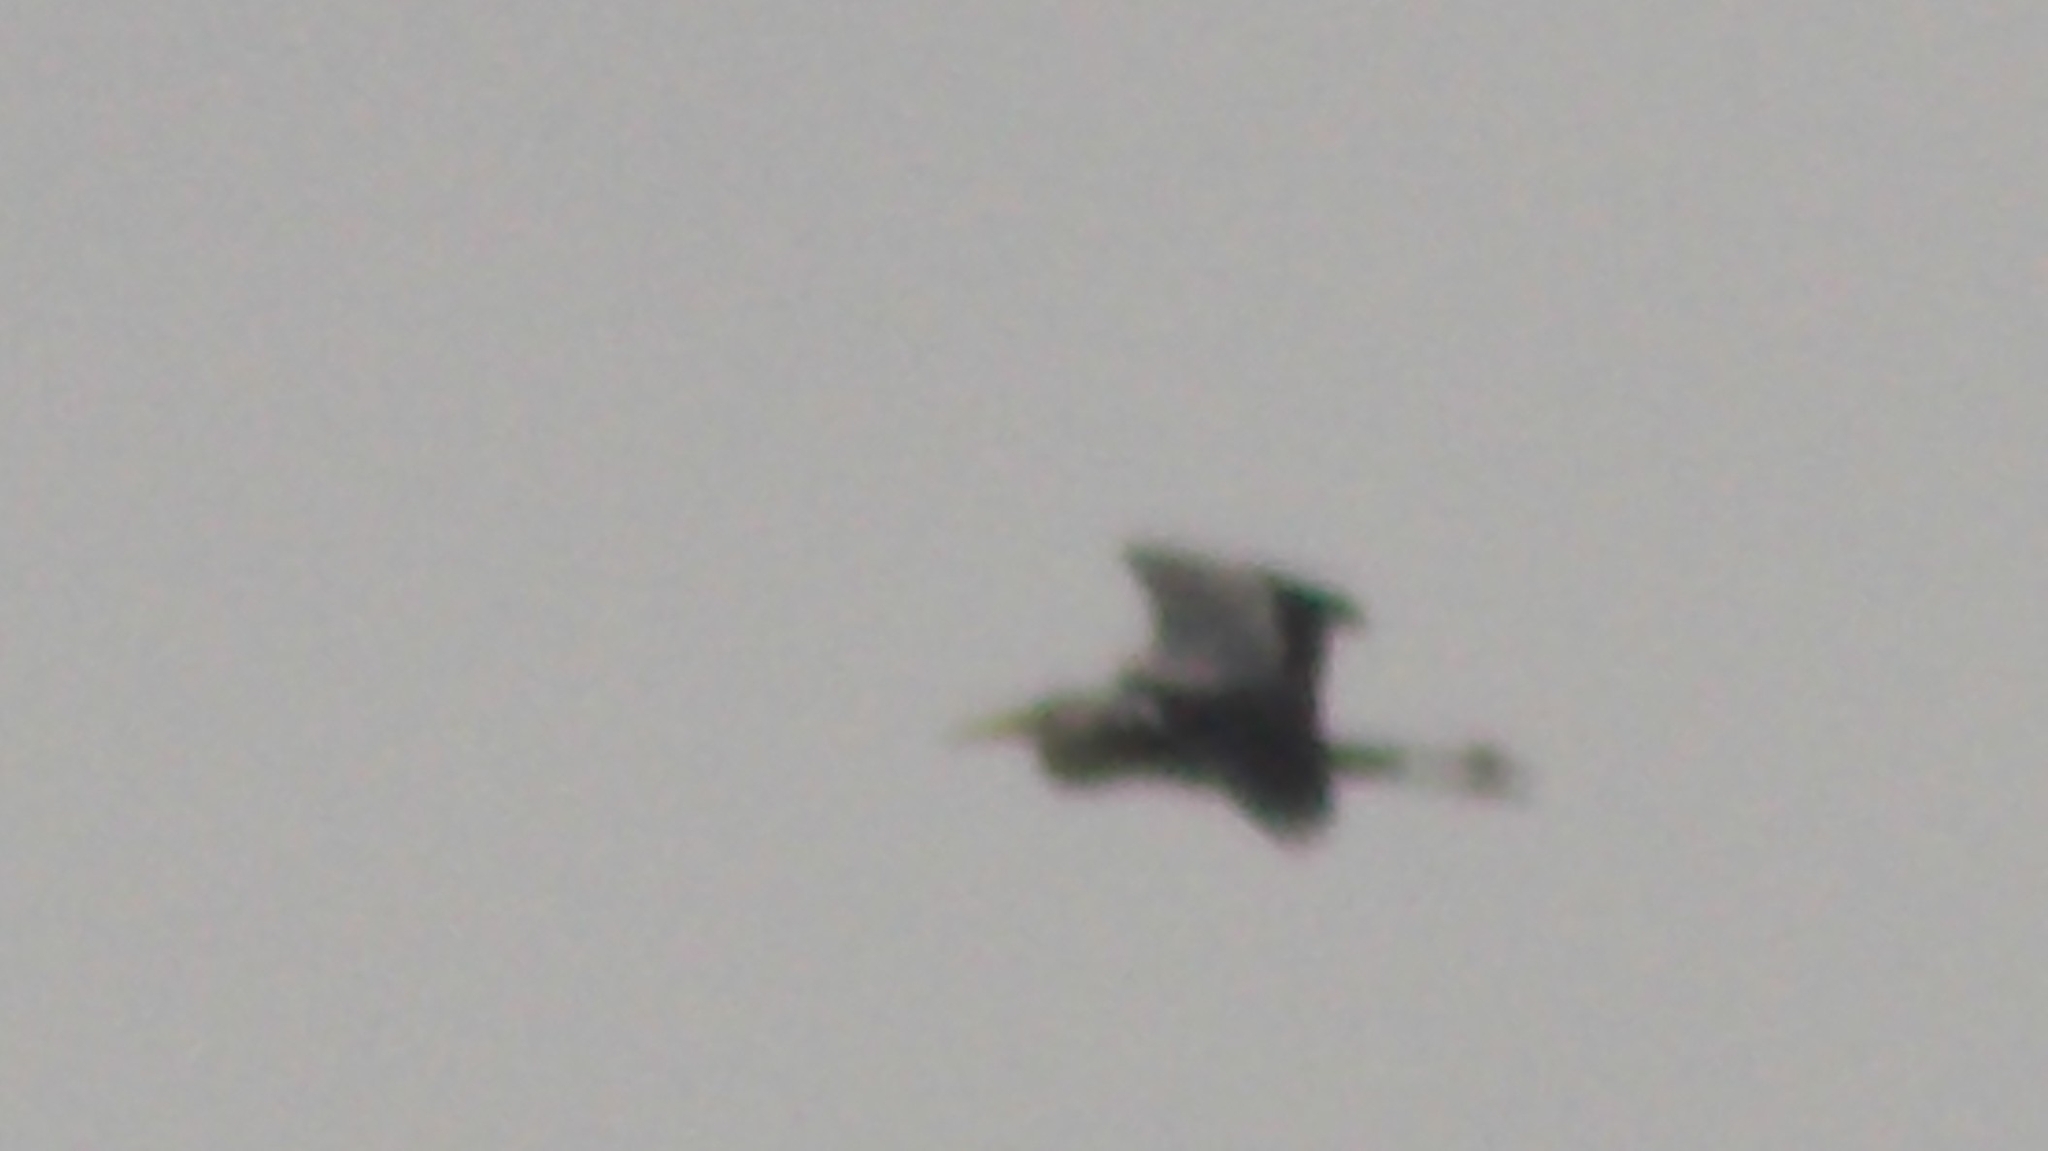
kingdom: Animalia
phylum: Chordata
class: Aves
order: Pelecaniformes
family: Ardeidae
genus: Ardea
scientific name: Ardea cinerea
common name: Grey heron
